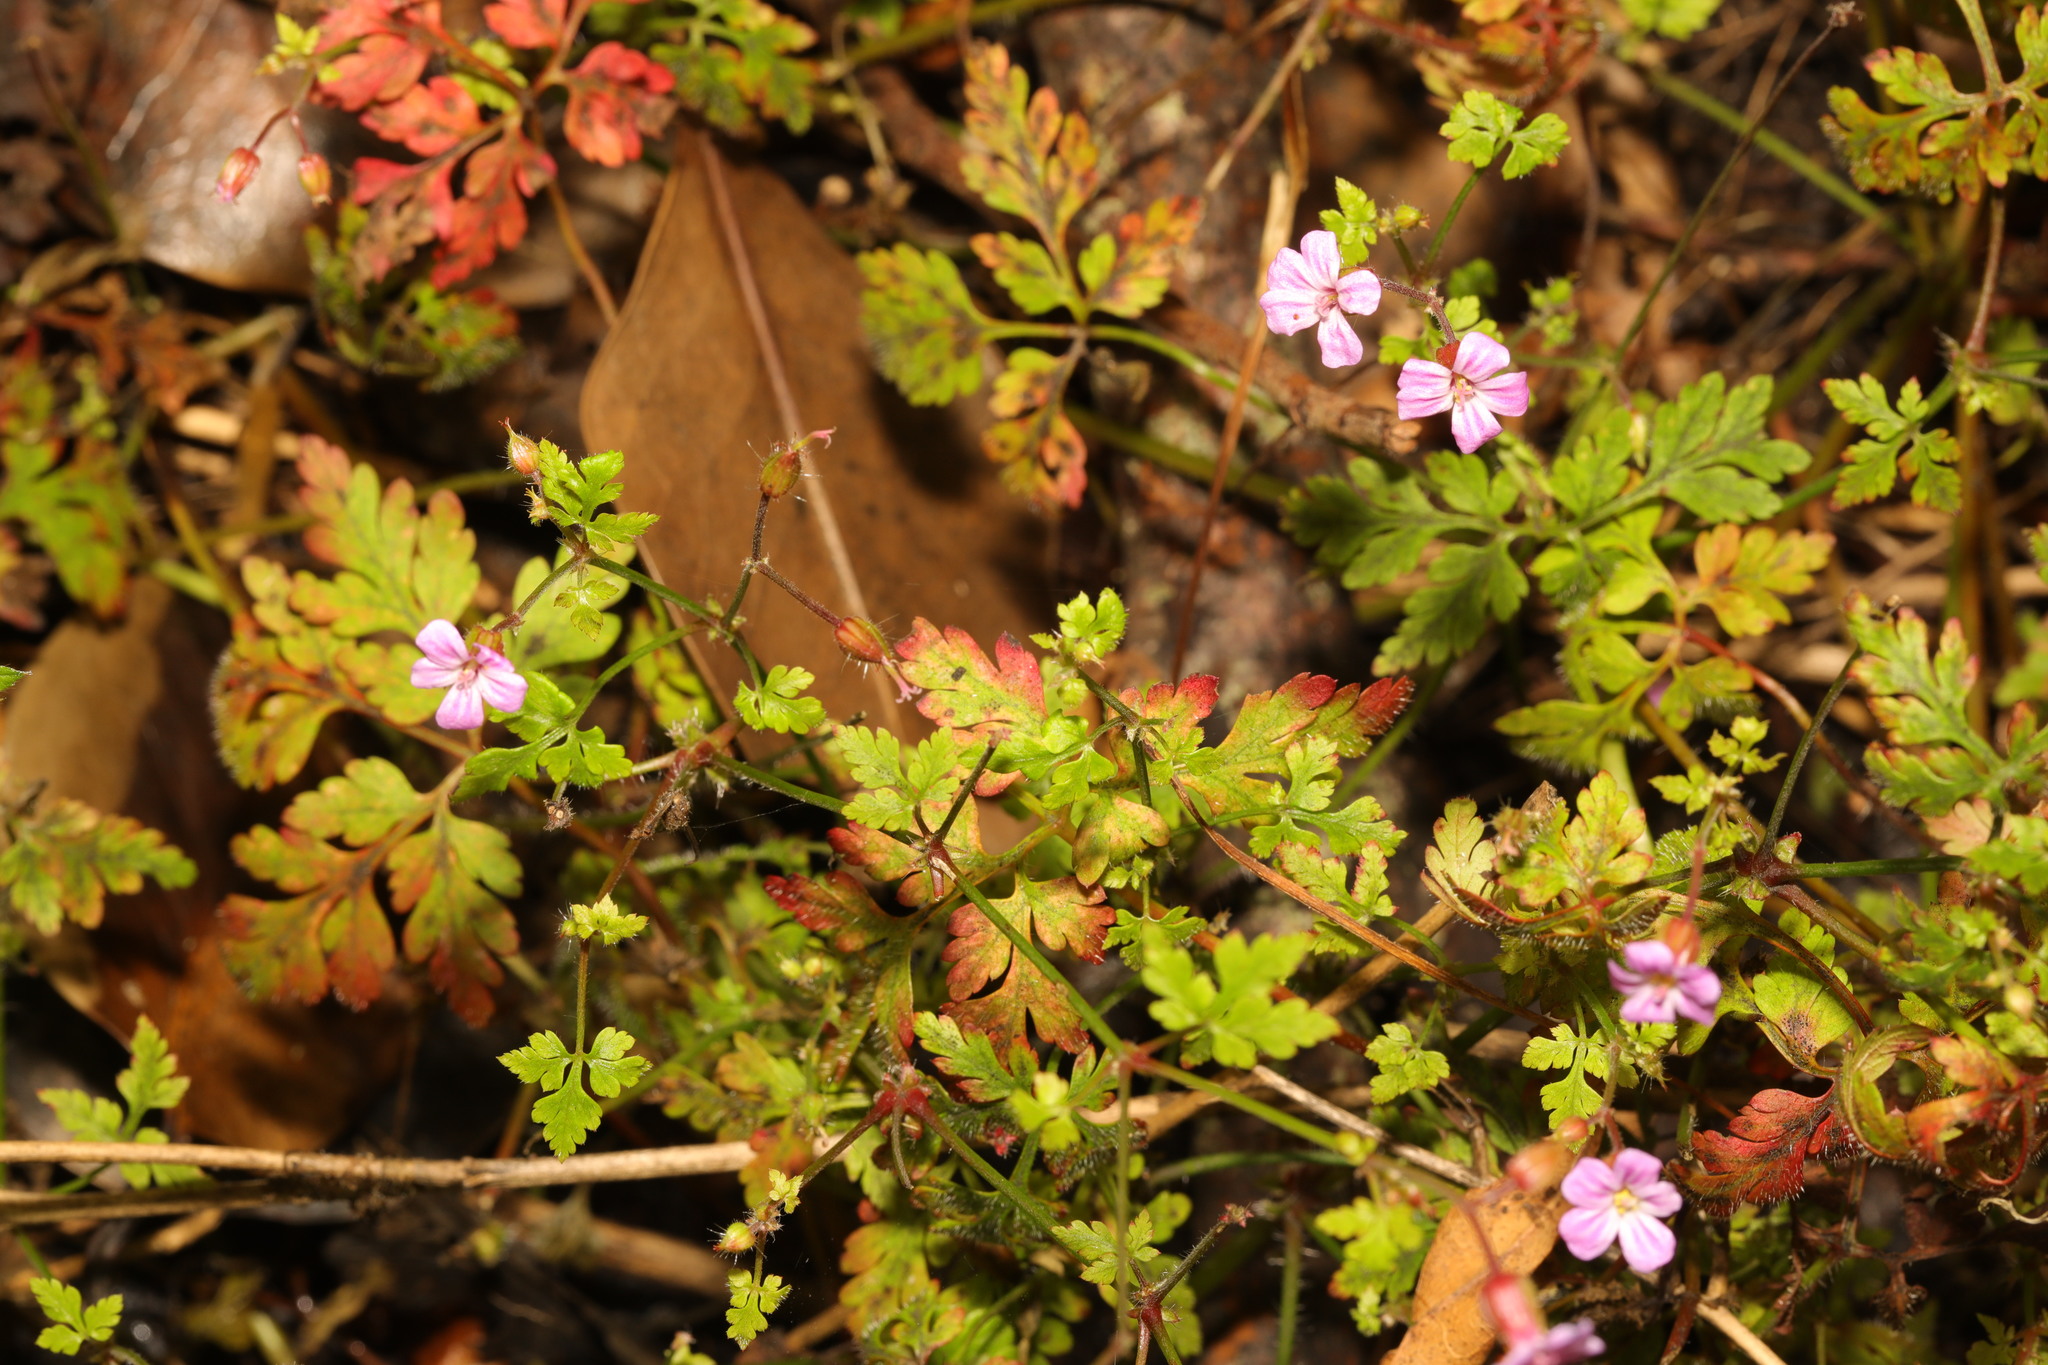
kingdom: Plantae
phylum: Tracheophyta
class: Magnoliopsida
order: Geraniales
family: Geraniaceae
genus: Geranium
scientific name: Geranium robertianum
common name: Herb-robert
